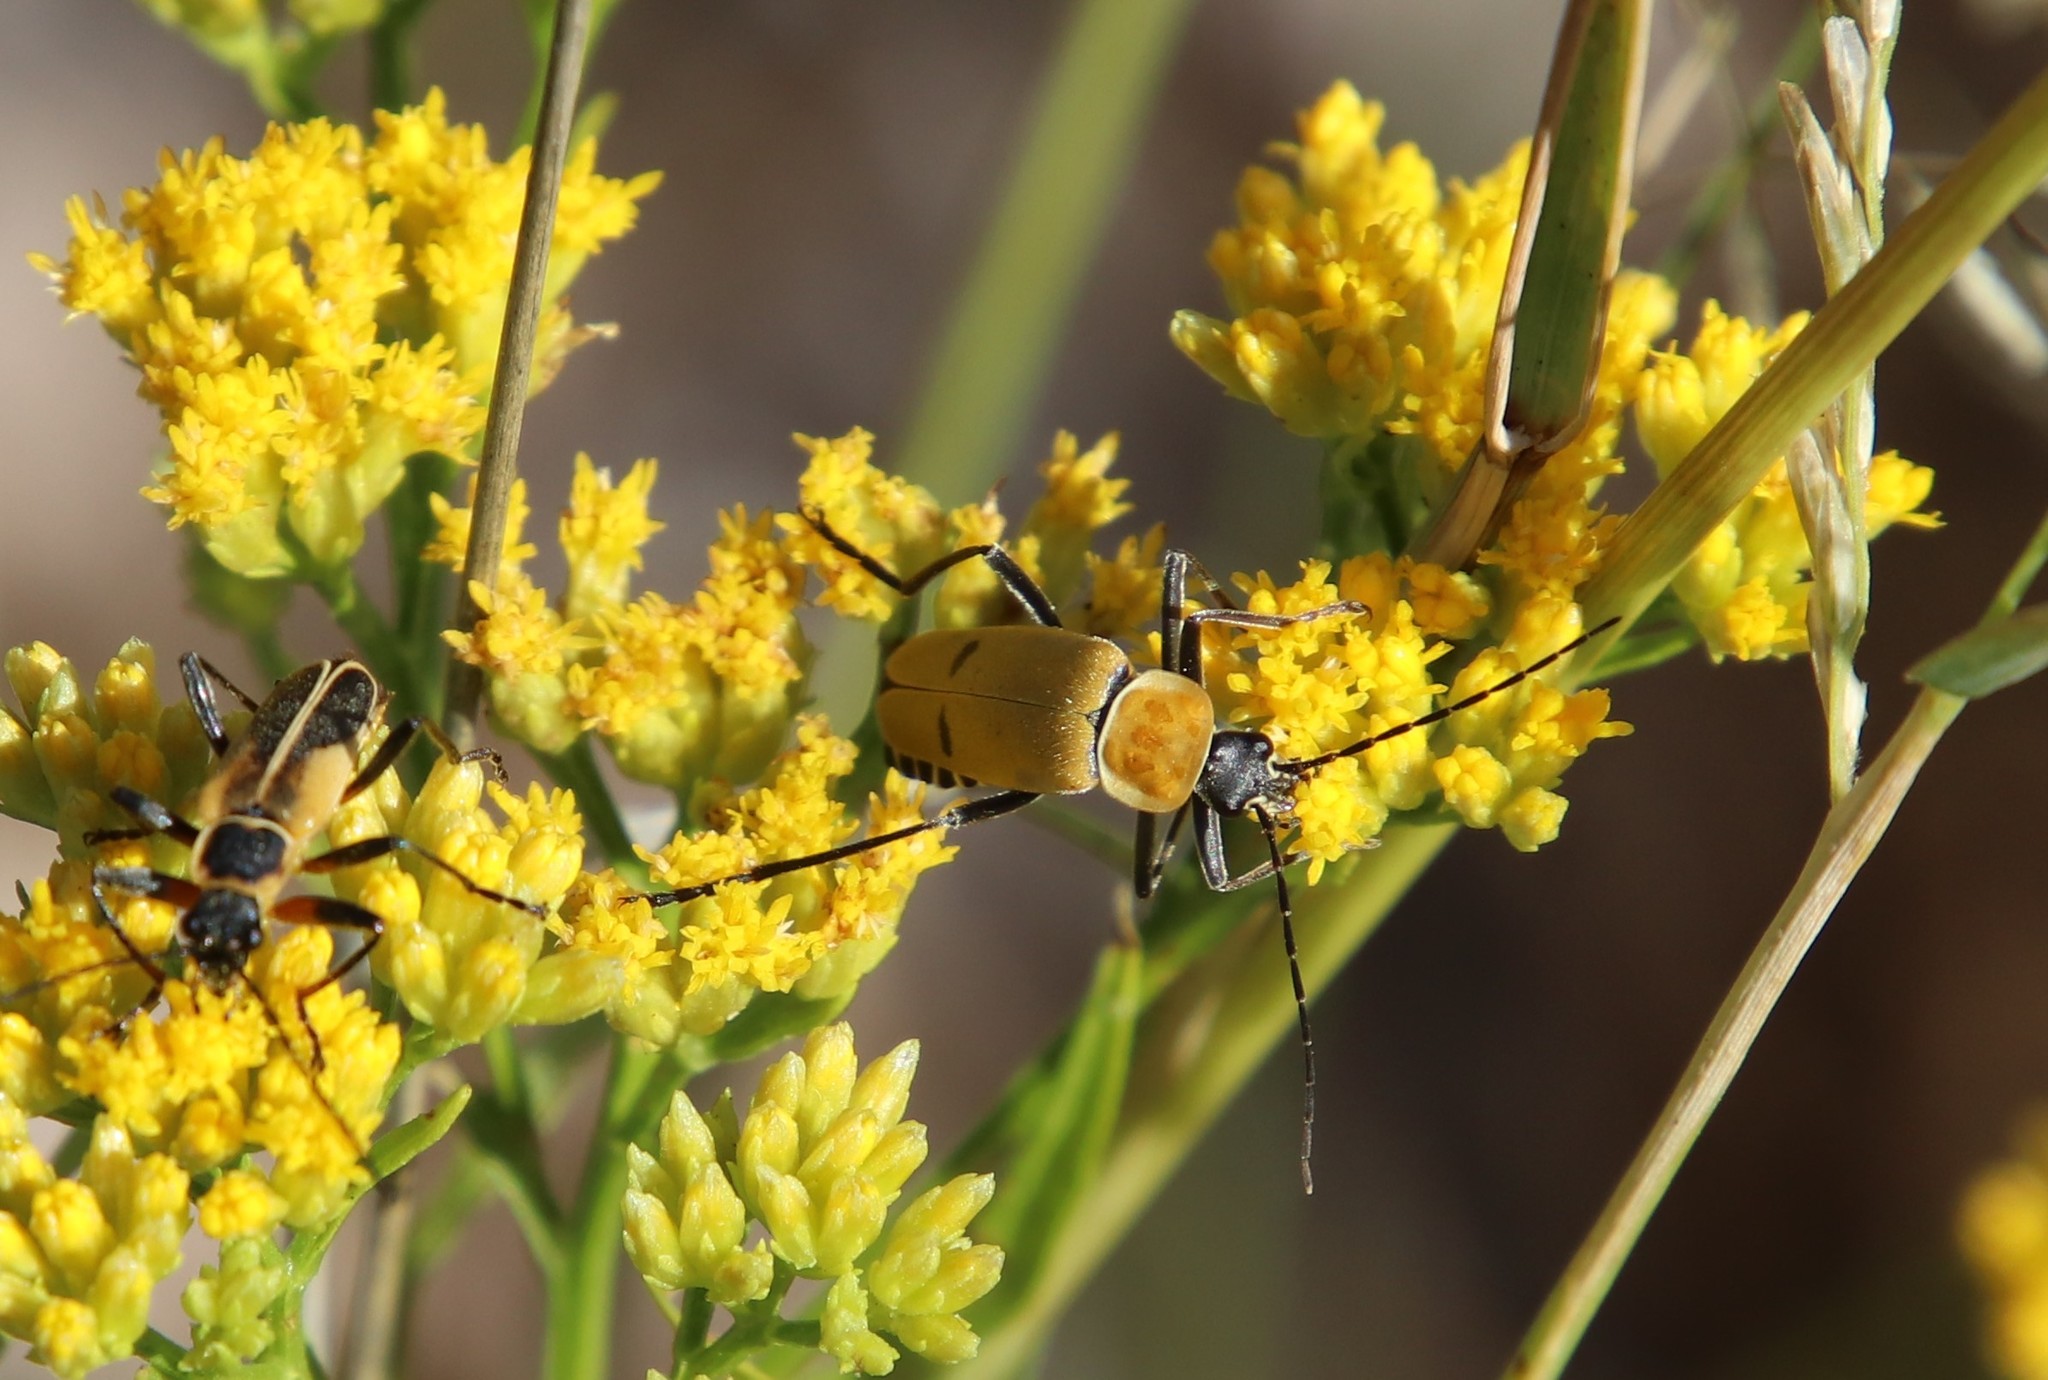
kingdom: Animalia
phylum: Arthropoda
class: Insecta
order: Coleoptera
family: Cantharidae
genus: Chauliognathus
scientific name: Chauliognathus misellus
